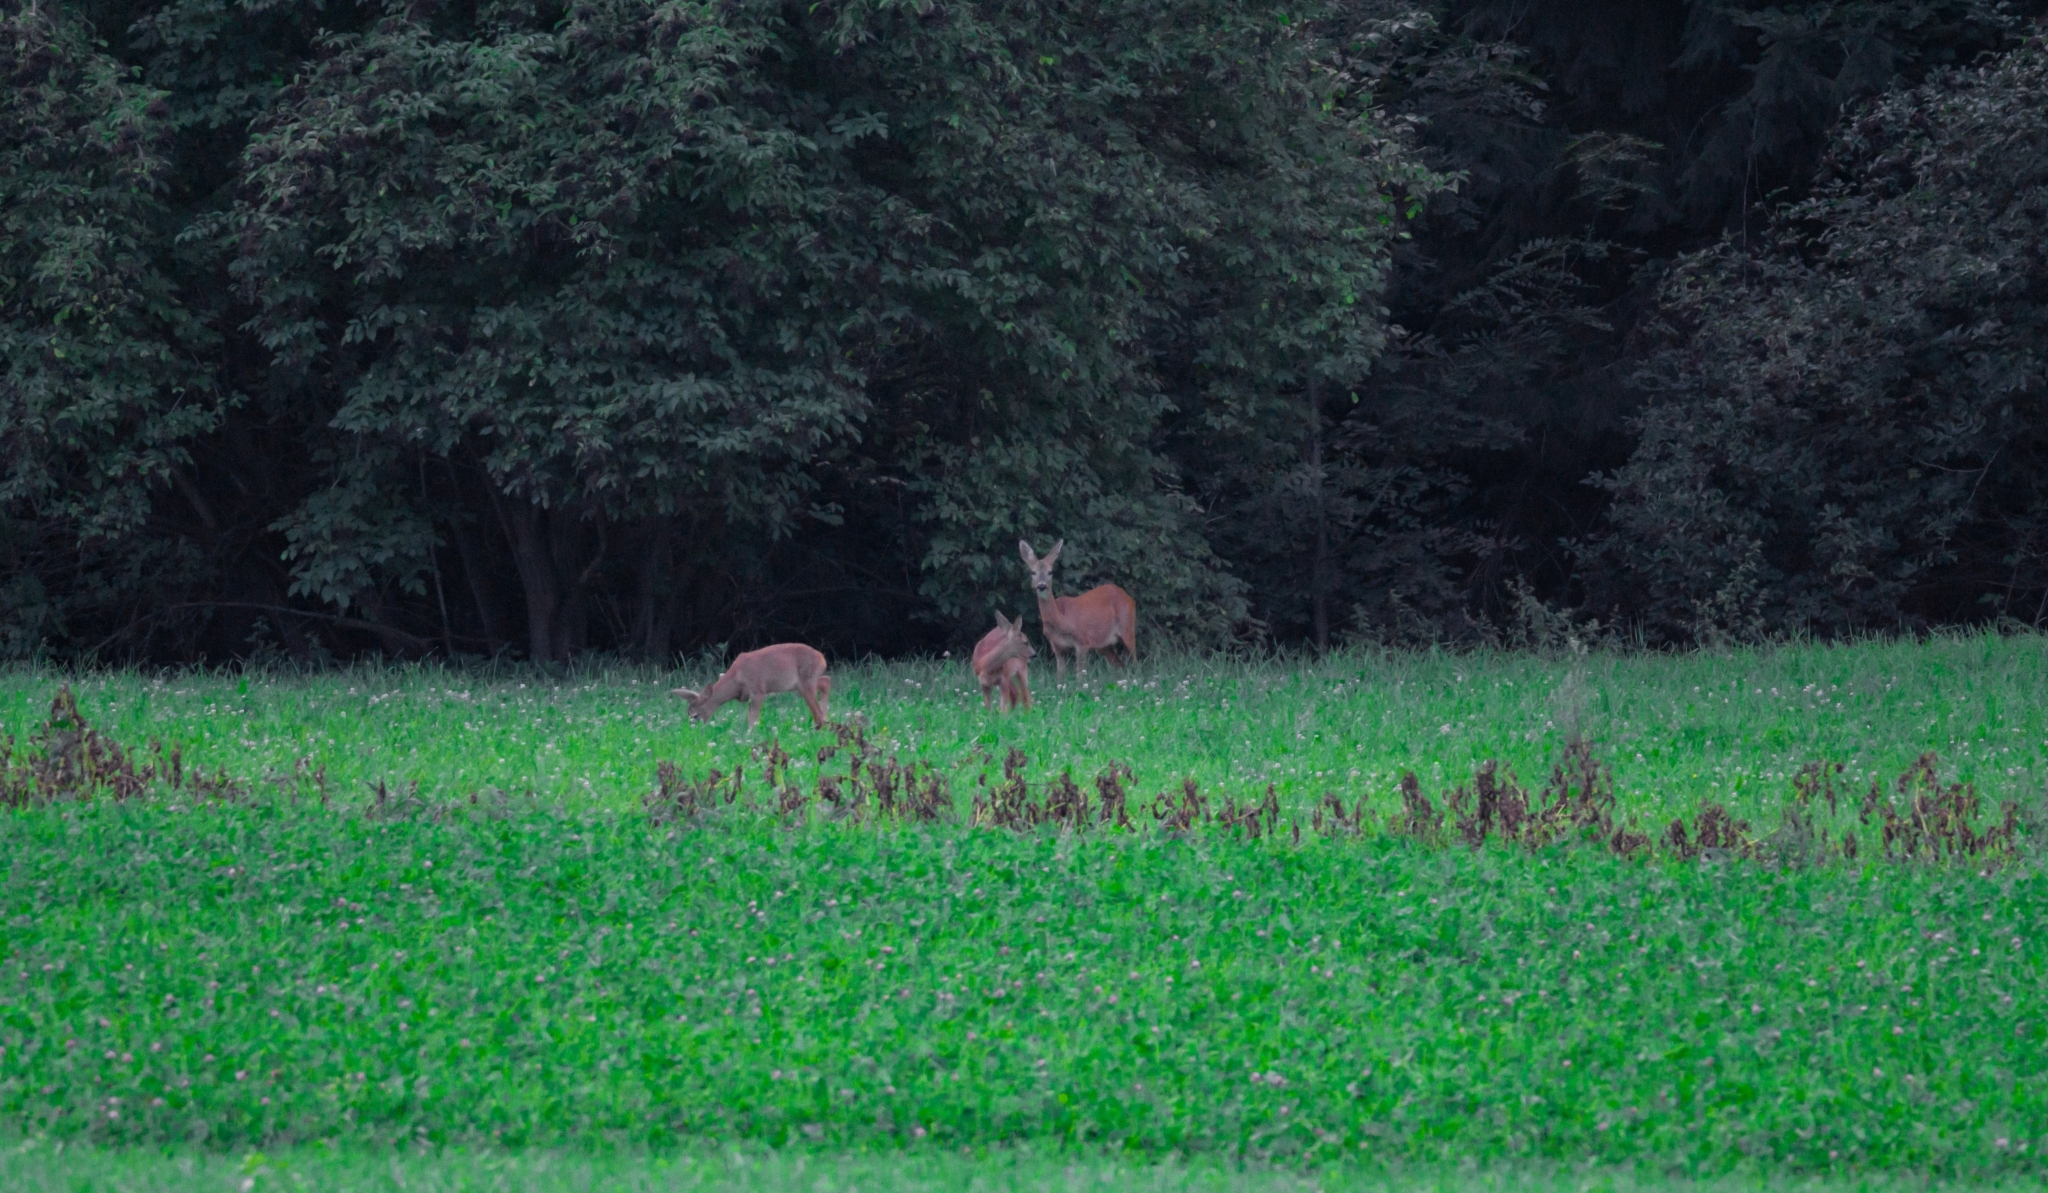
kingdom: Animalia
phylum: Chordata
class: Mammalia
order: Artiodactyla
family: Cervidae
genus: Capreolus
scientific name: Capreolus capreolus
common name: Western roe deer
